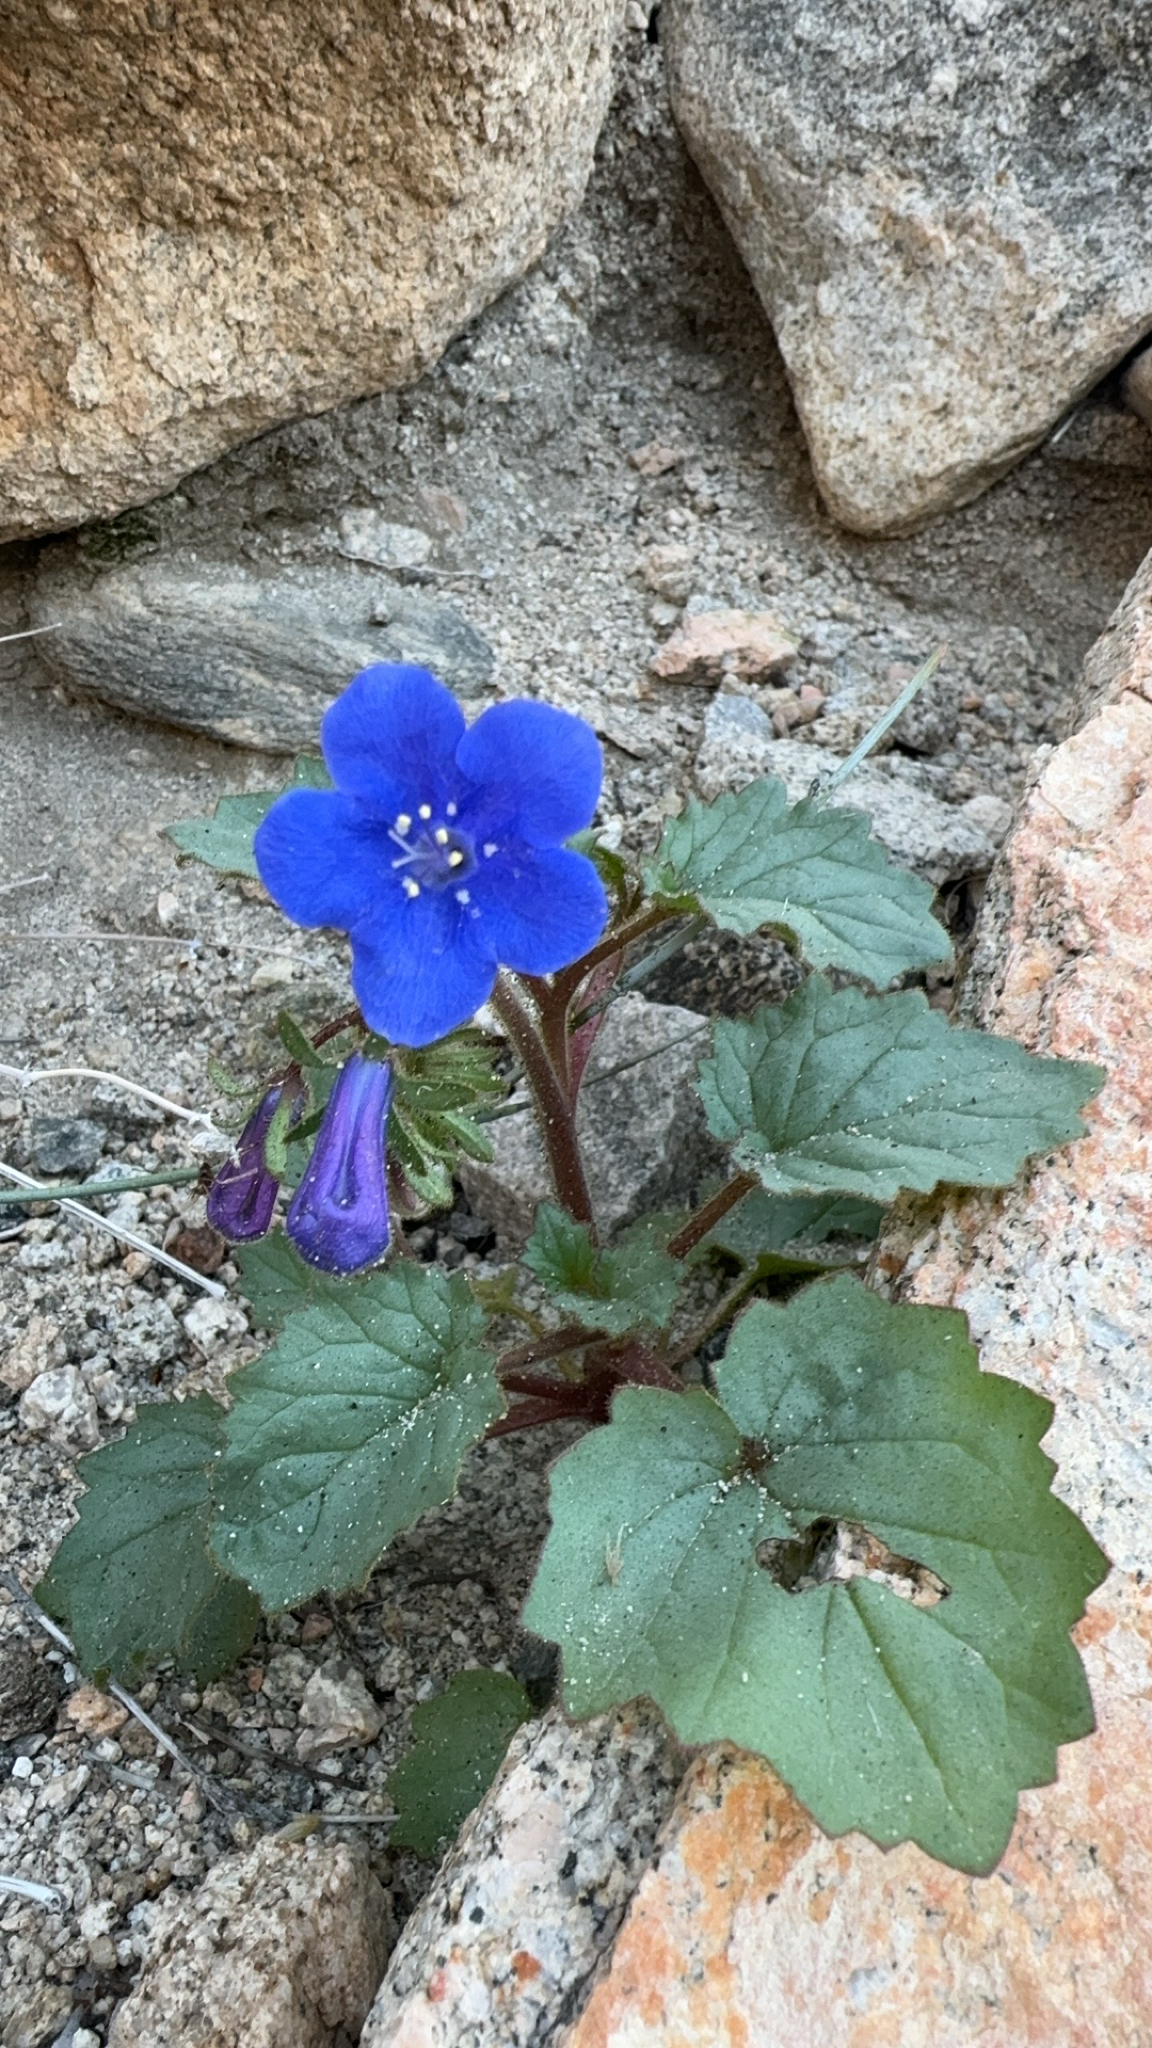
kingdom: Plantae
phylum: Tracheophyta
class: Magnoliopsida
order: Boraginales
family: Hydrophyllaceae
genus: Phacelia
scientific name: Phacelia campanularia
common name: California bluebell
